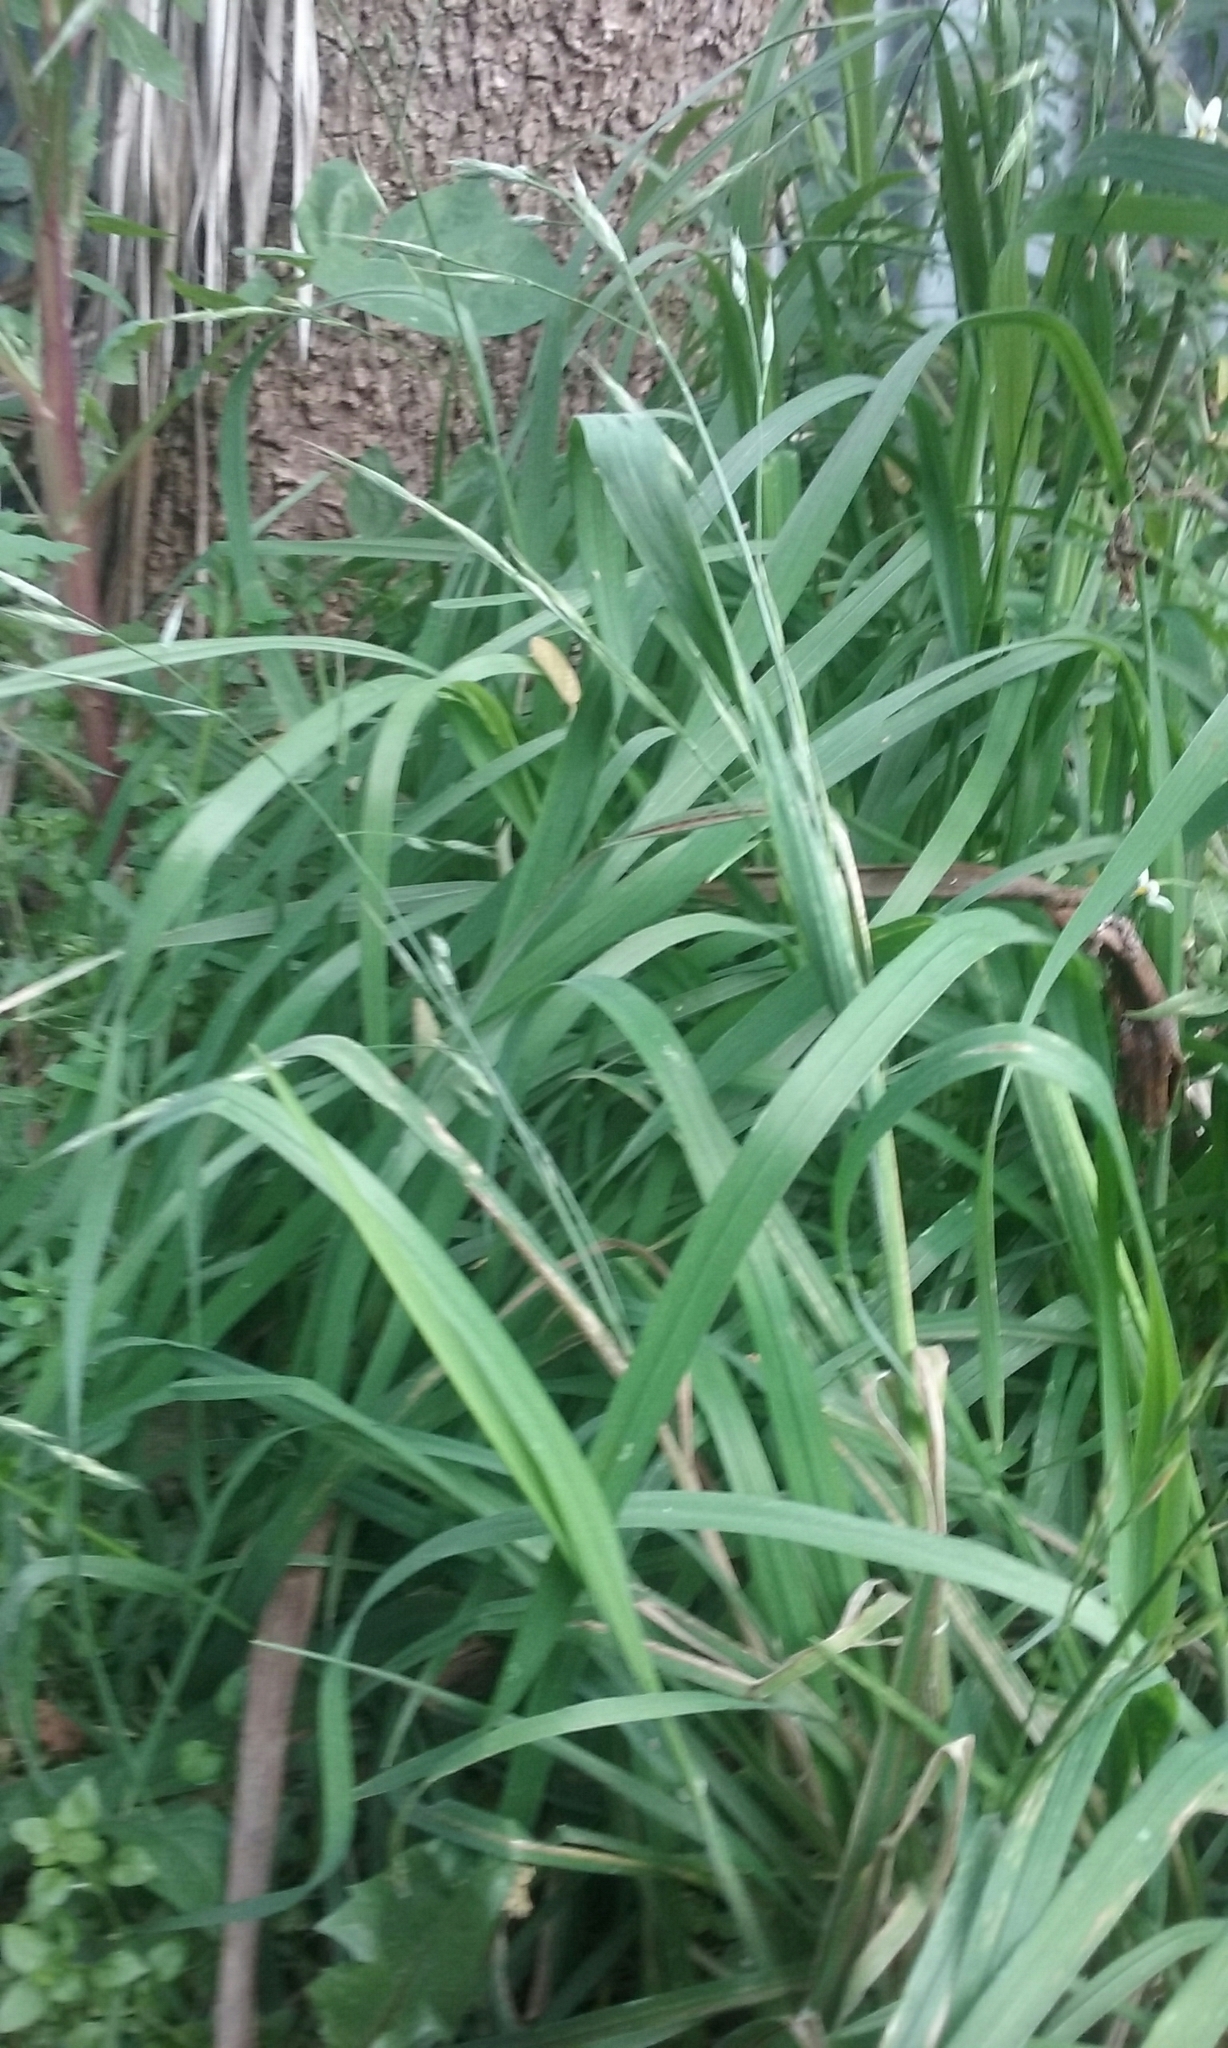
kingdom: Plantae
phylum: Tracheophyta
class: Liliopsida
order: Poales
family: Poaceae
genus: Bromus
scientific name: Bromus catharticus
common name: Rescuegrass
